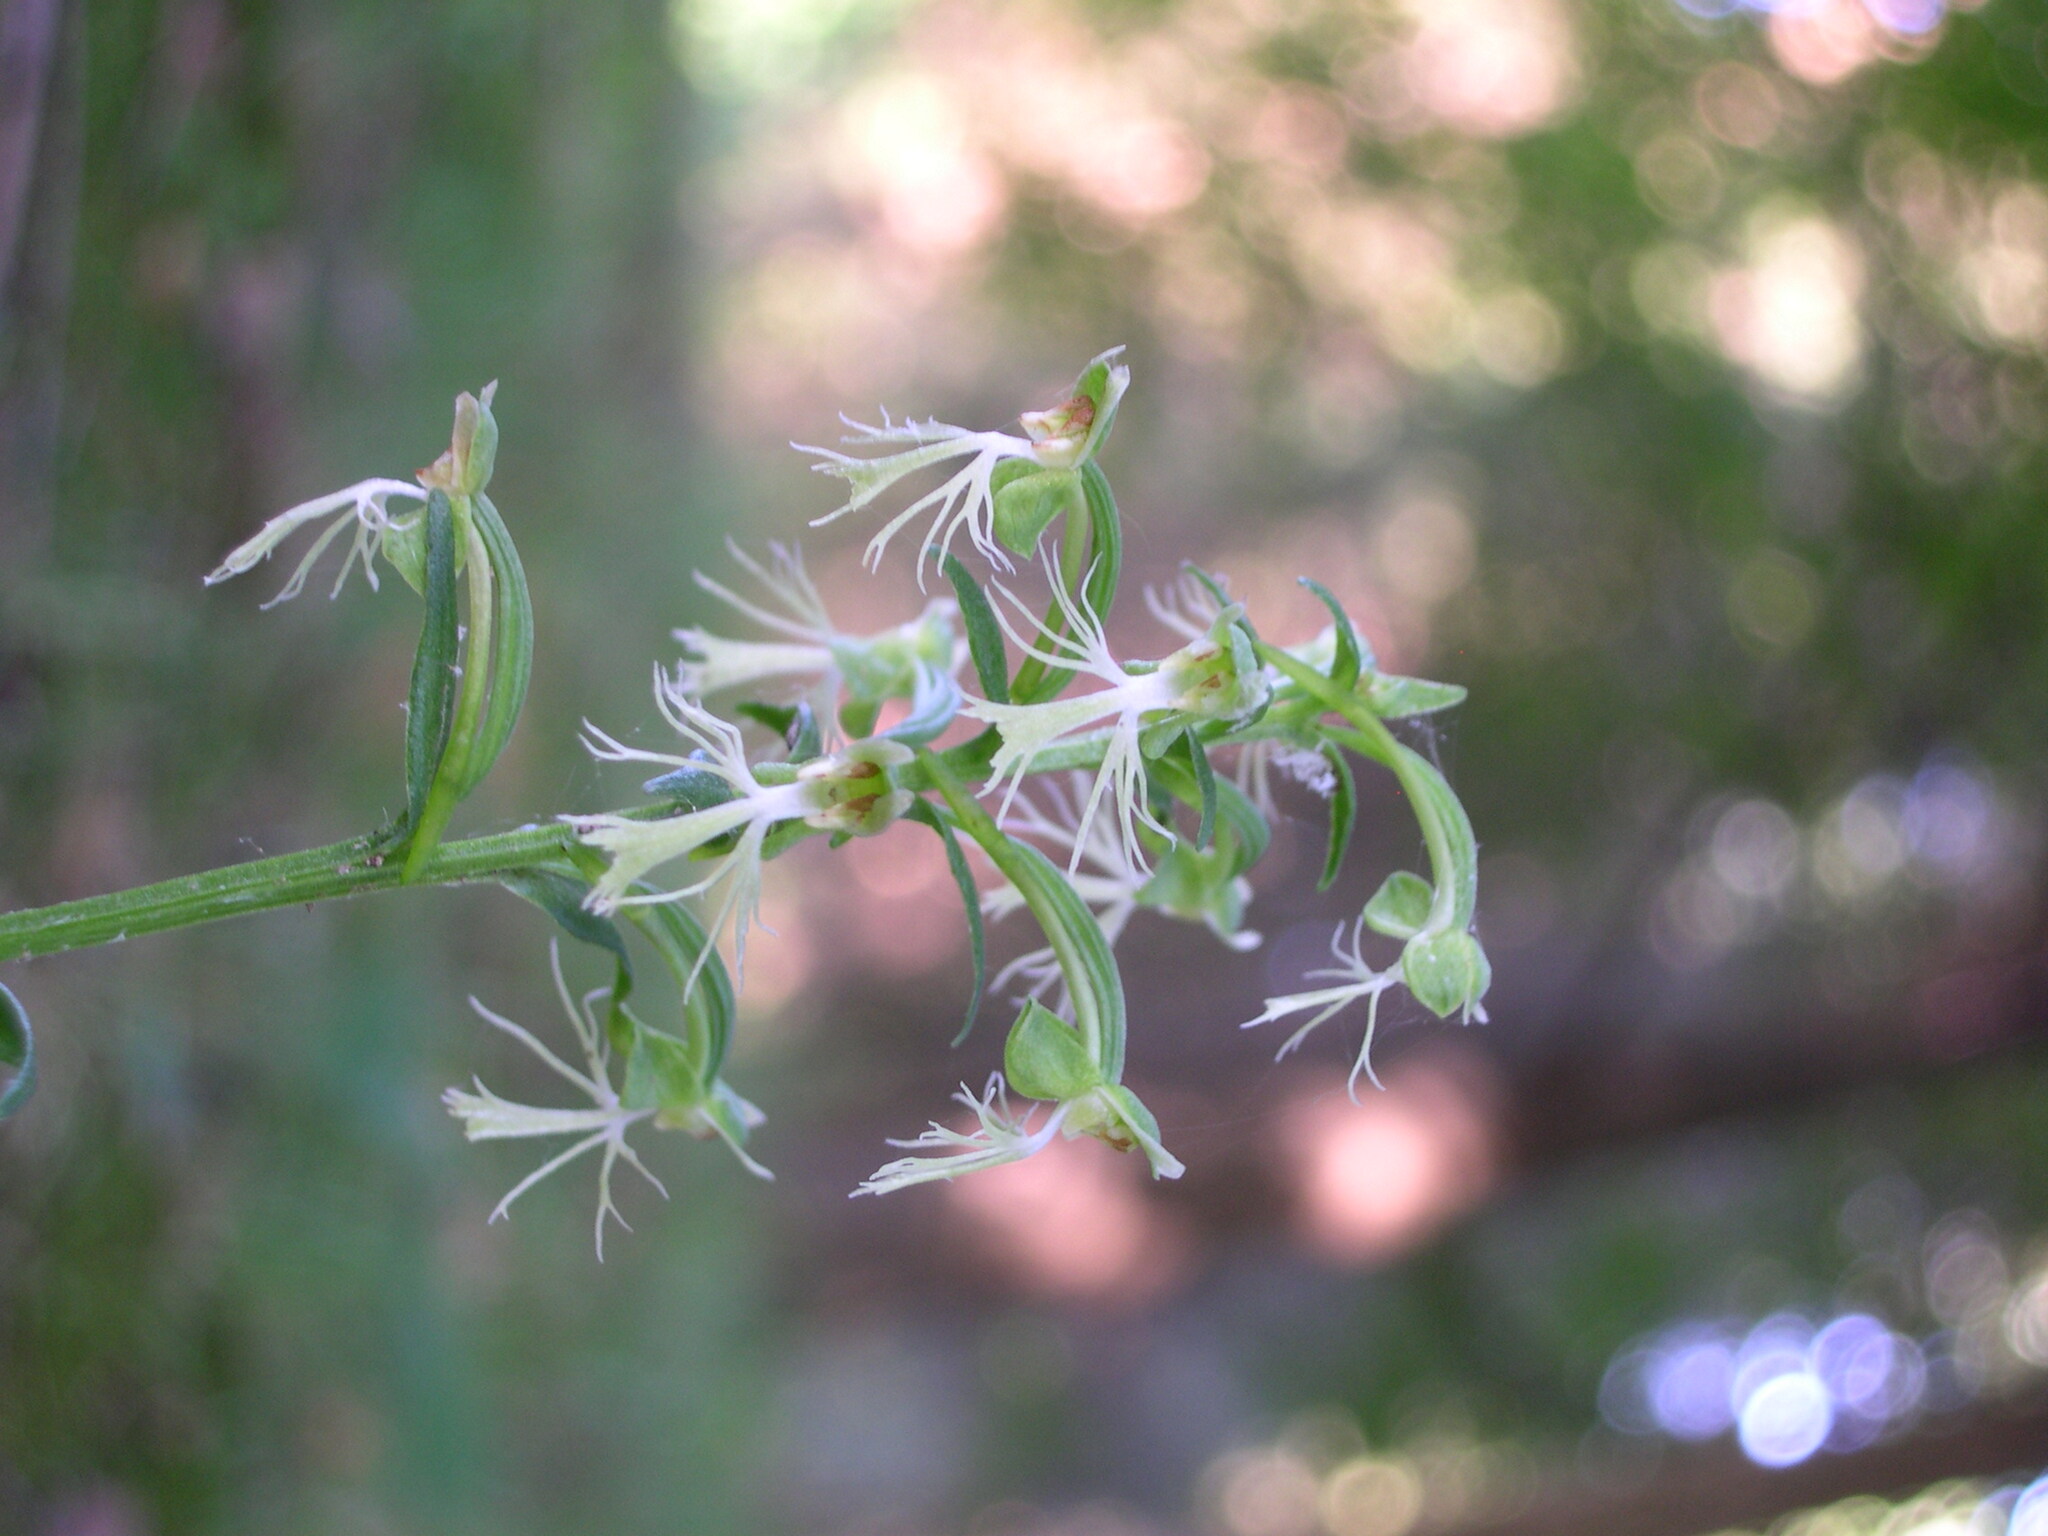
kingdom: Plantae
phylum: Tracheophyta
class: Liliopsida
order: Asparagales
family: Orchidaceae
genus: Platanthera
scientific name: Platanthera lacera
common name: Green fringed orchid
